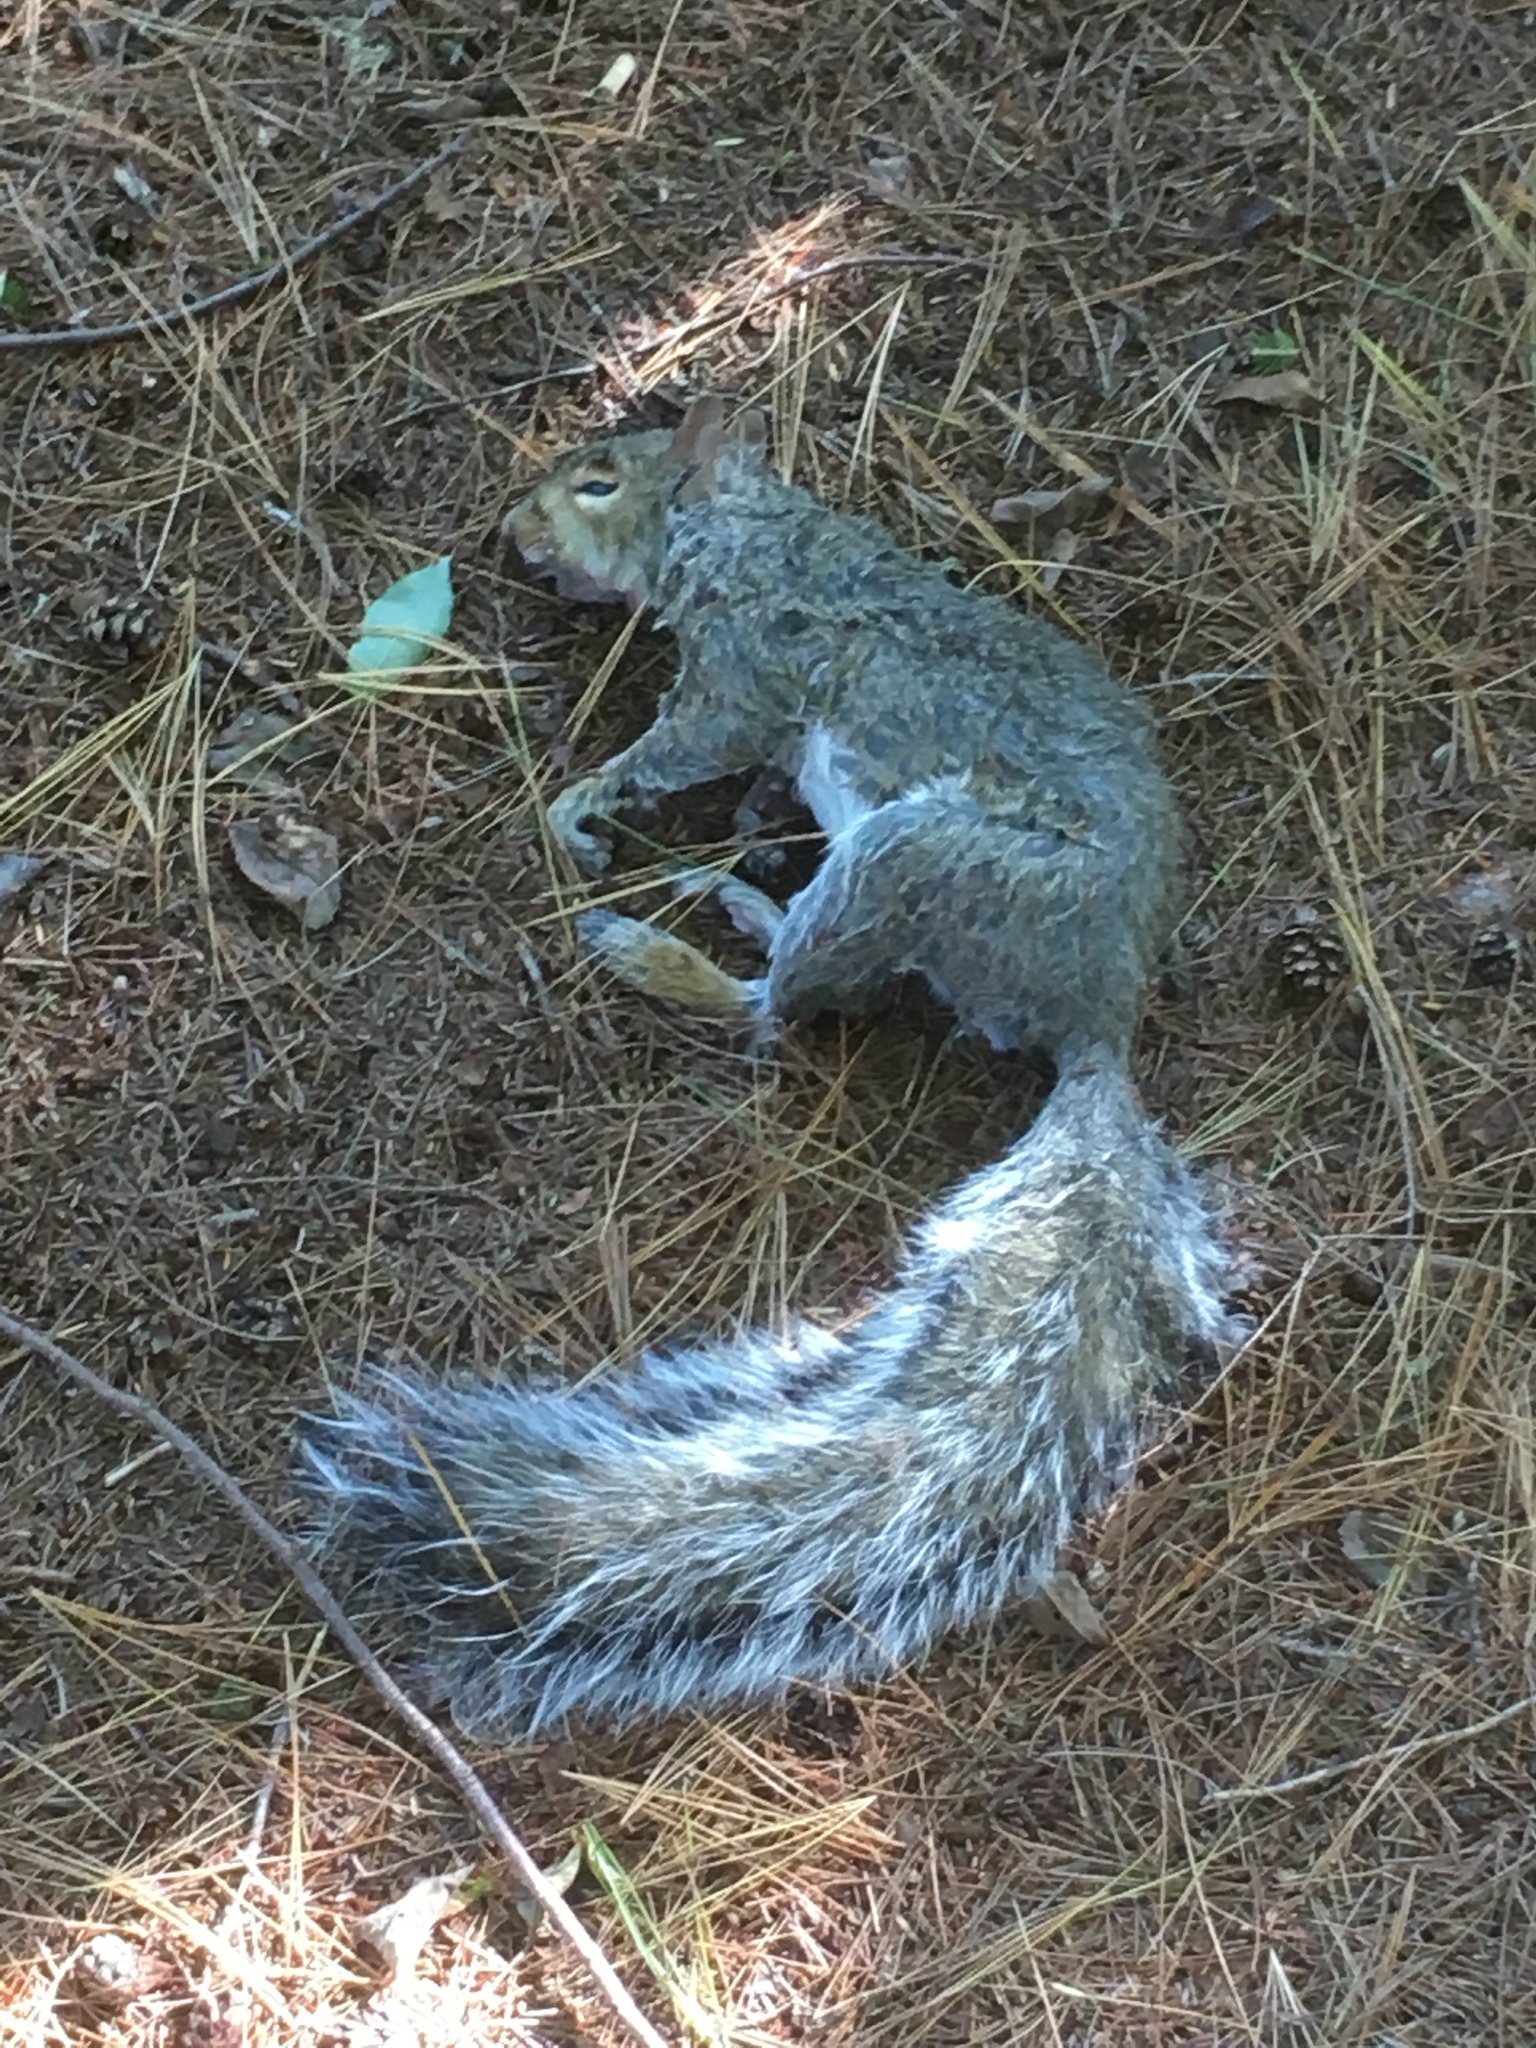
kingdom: Animalia
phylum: Chordata
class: Mammalia
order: Rodentia
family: Sciuridae
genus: Sciurus
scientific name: Sciurus carolinensis
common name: Eastern gray squirrel
